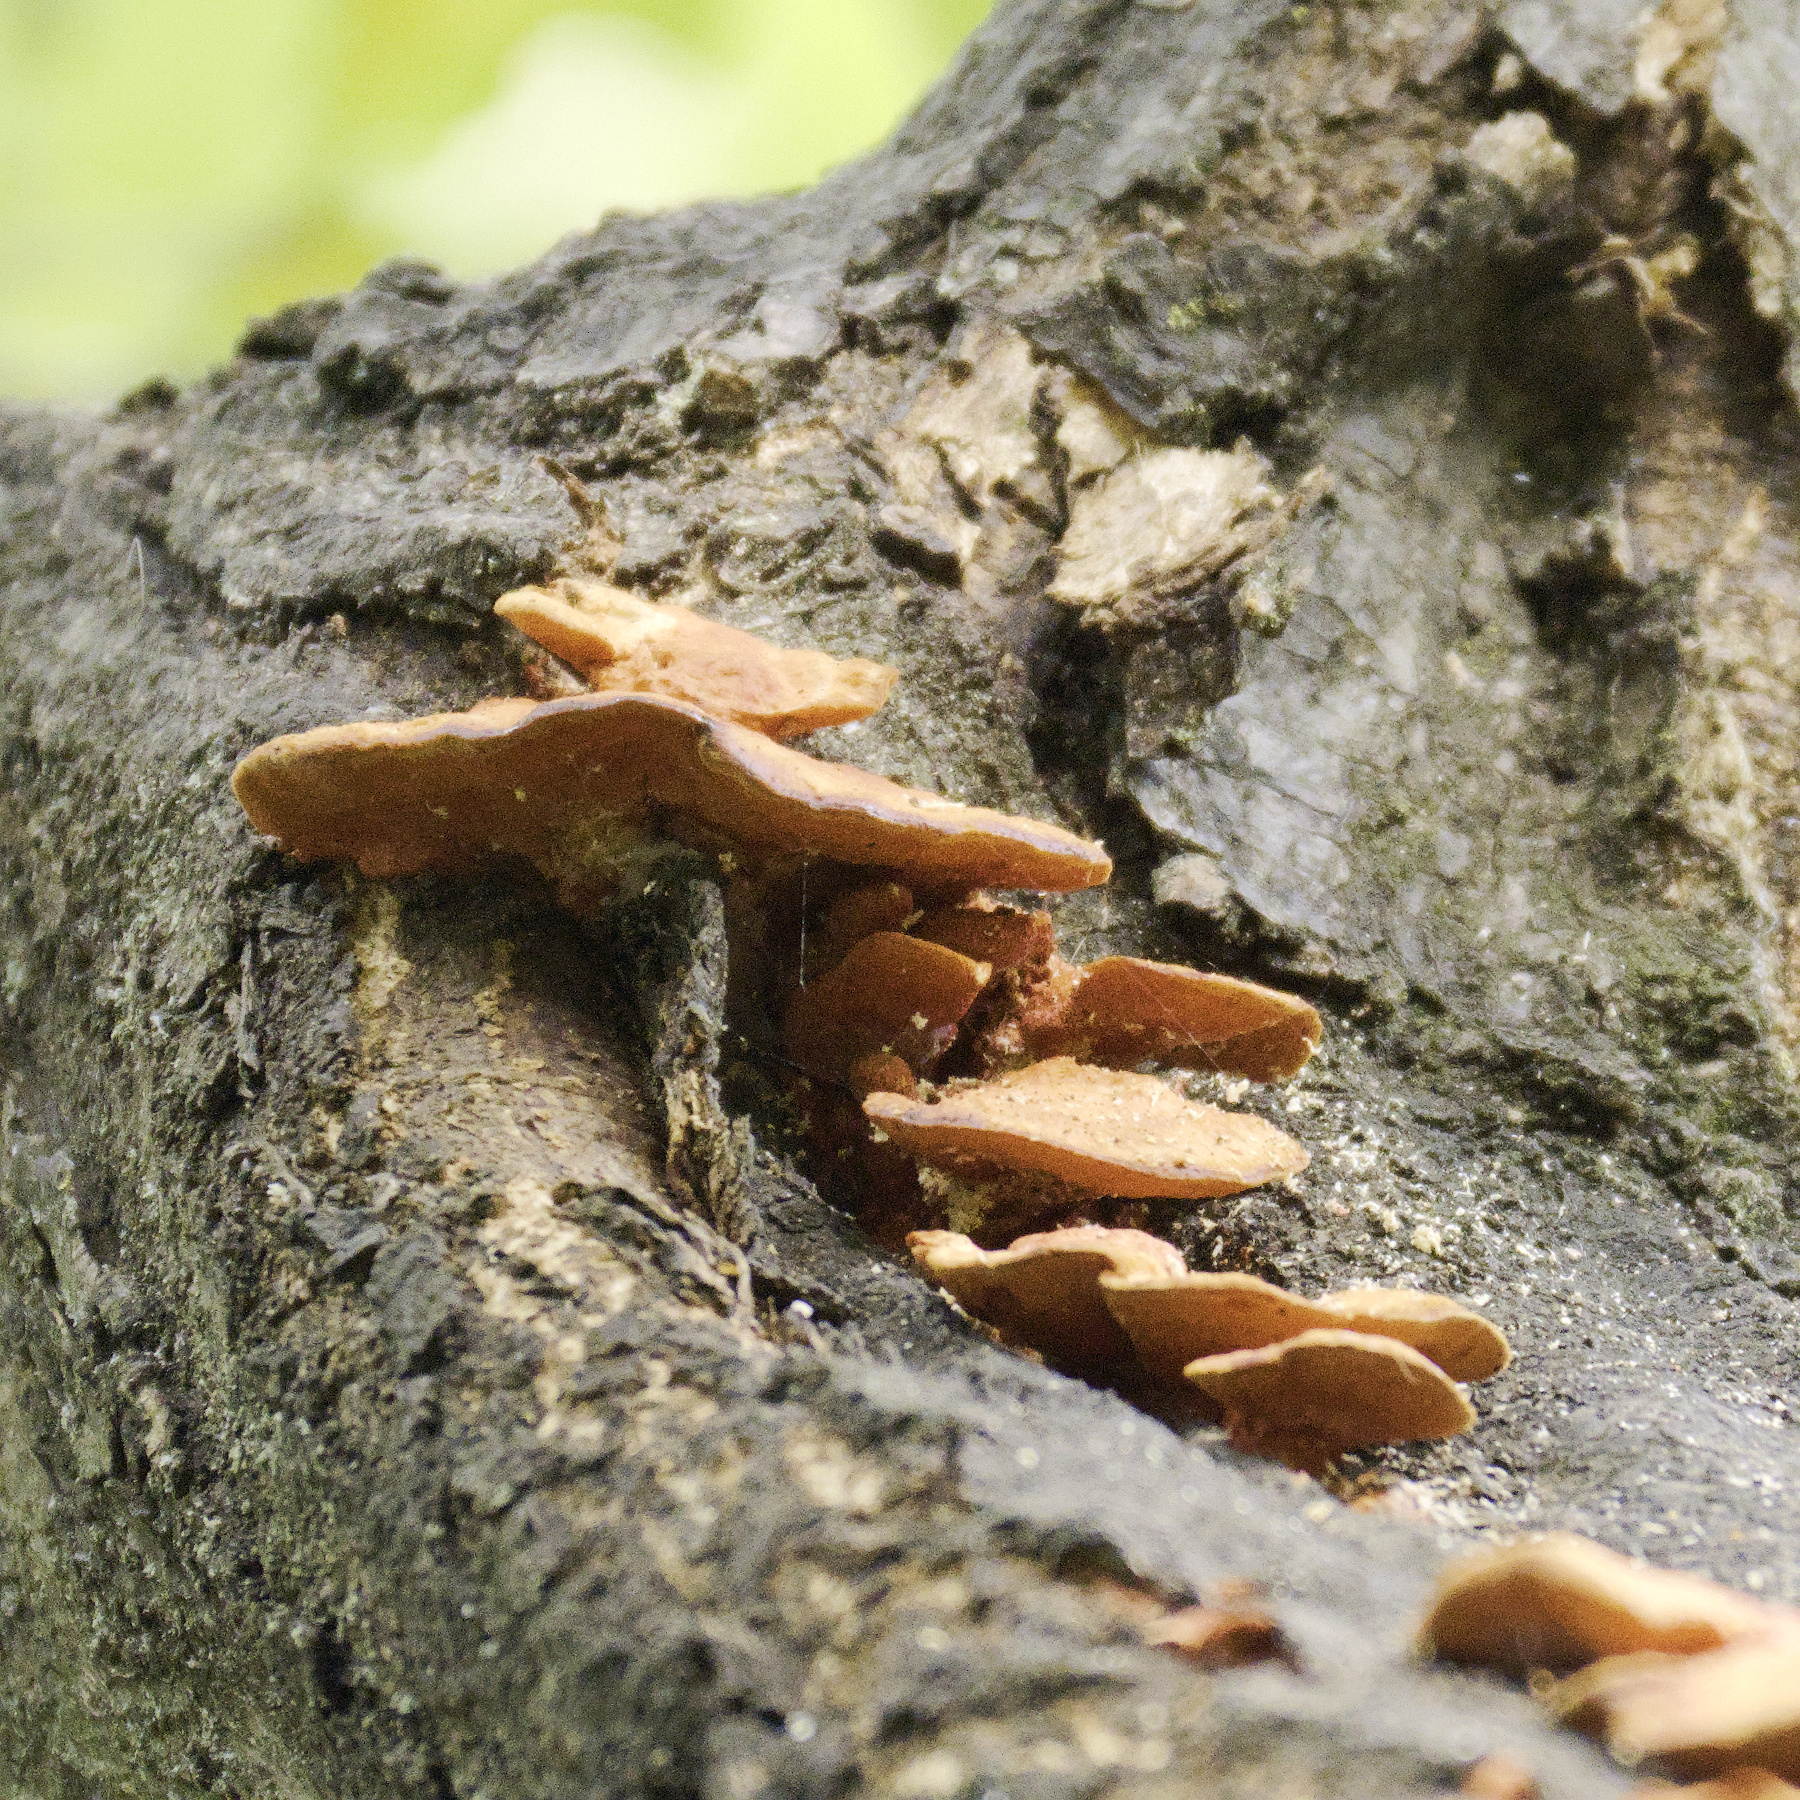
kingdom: Fungi
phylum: Basidiomycota
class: Agaricomycetes
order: Polyporales
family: Polyporaceae
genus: Trametes
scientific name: Trametes coccinea
